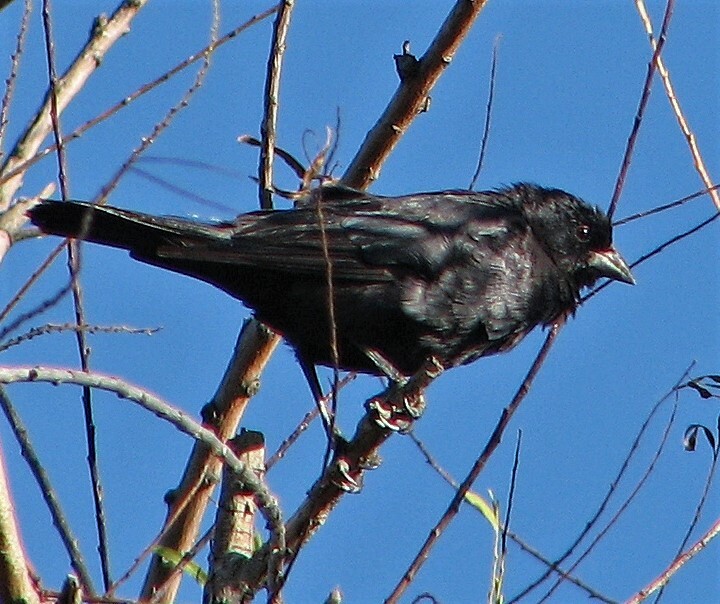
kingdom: Animalia
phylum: Chordata
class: Aves
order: Passeriformes
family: Icteridae
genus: Molothrus
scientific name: Molothrus rufoaxillaris
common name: Screaming cowbird
